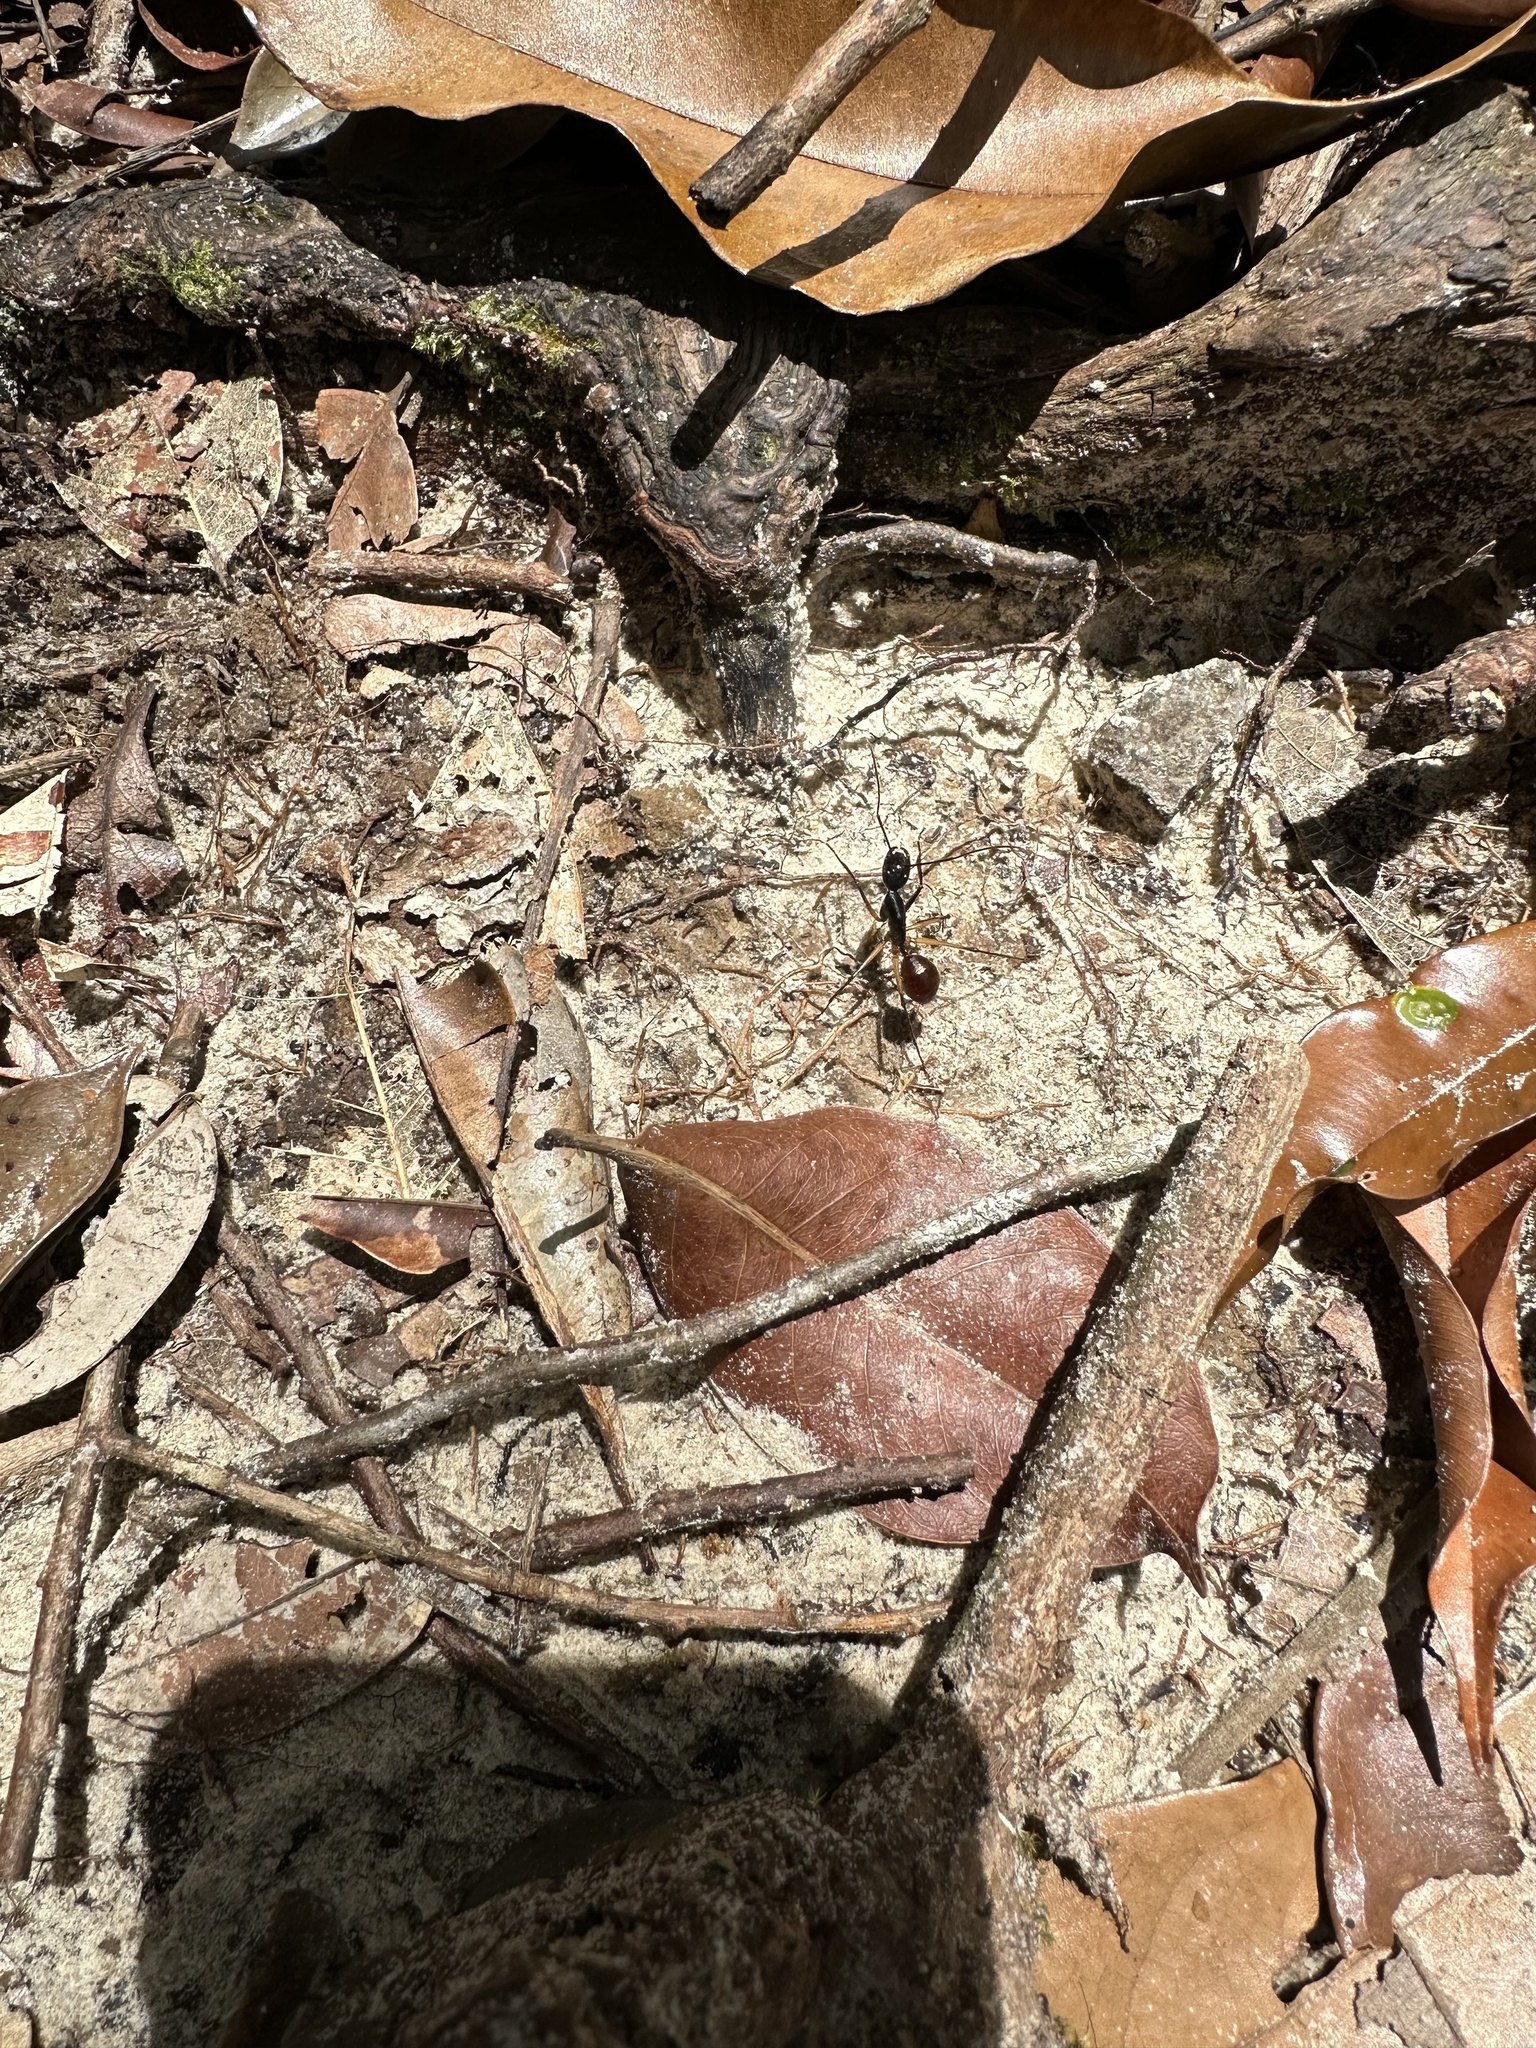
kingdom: Animalia
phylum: Arthropoda
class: Insecta
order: Hymenoptera
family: Formicidae
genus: Dinomyrmex
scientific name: Dinomyrmex
